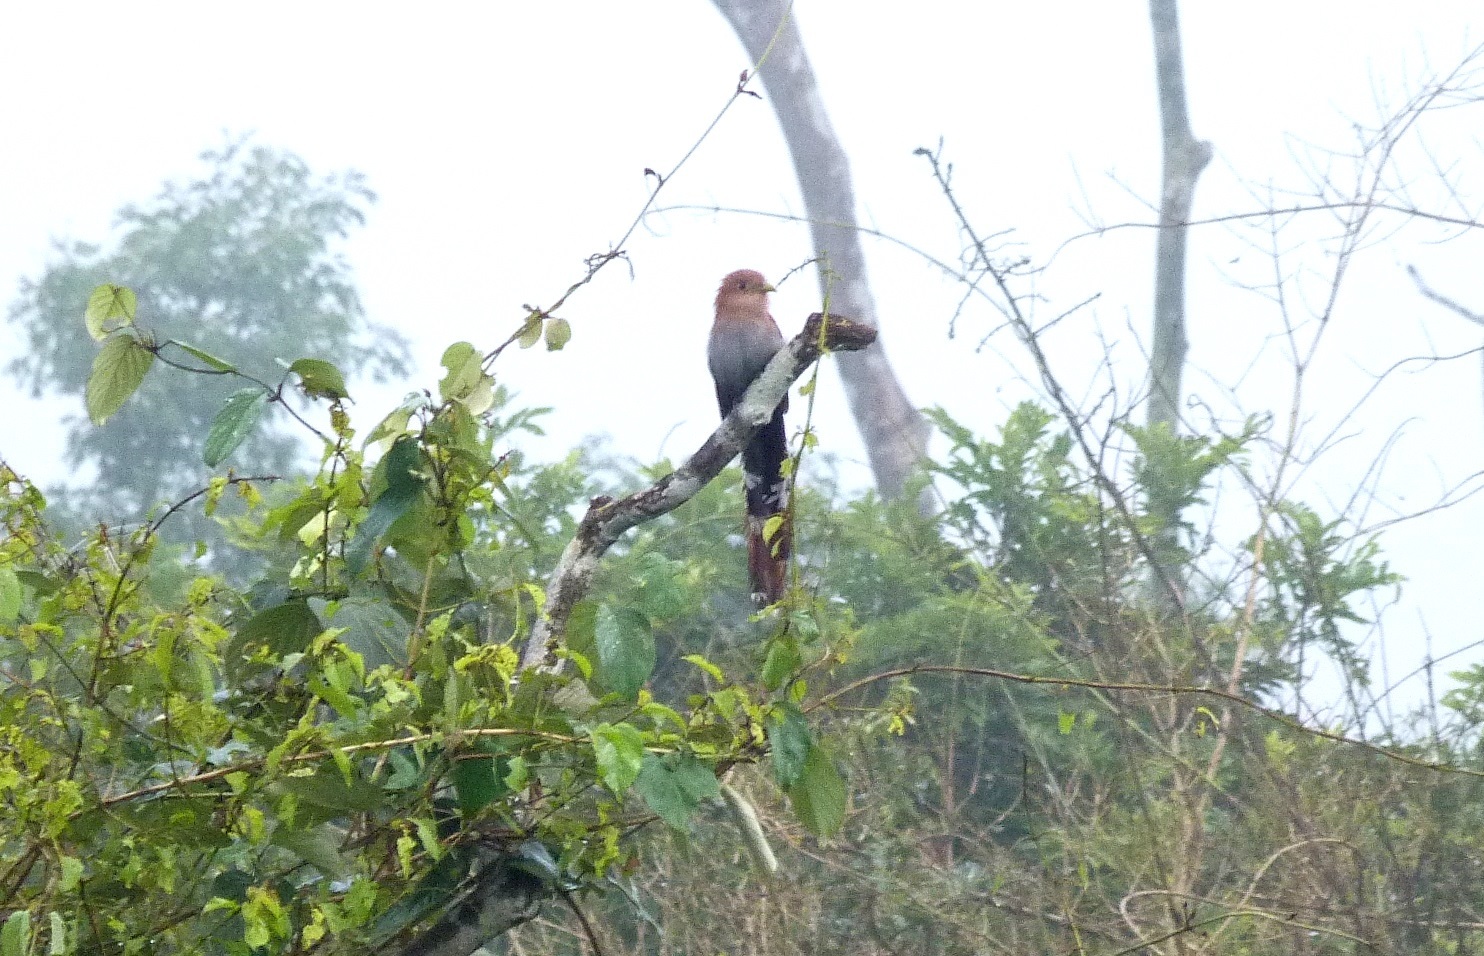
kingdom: Animalia
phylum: Chordata
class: Aves
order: Cuculiformes
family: Cuculidae
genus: Piaya
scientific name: Piaya cayana
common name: Squirrel cuckoo
